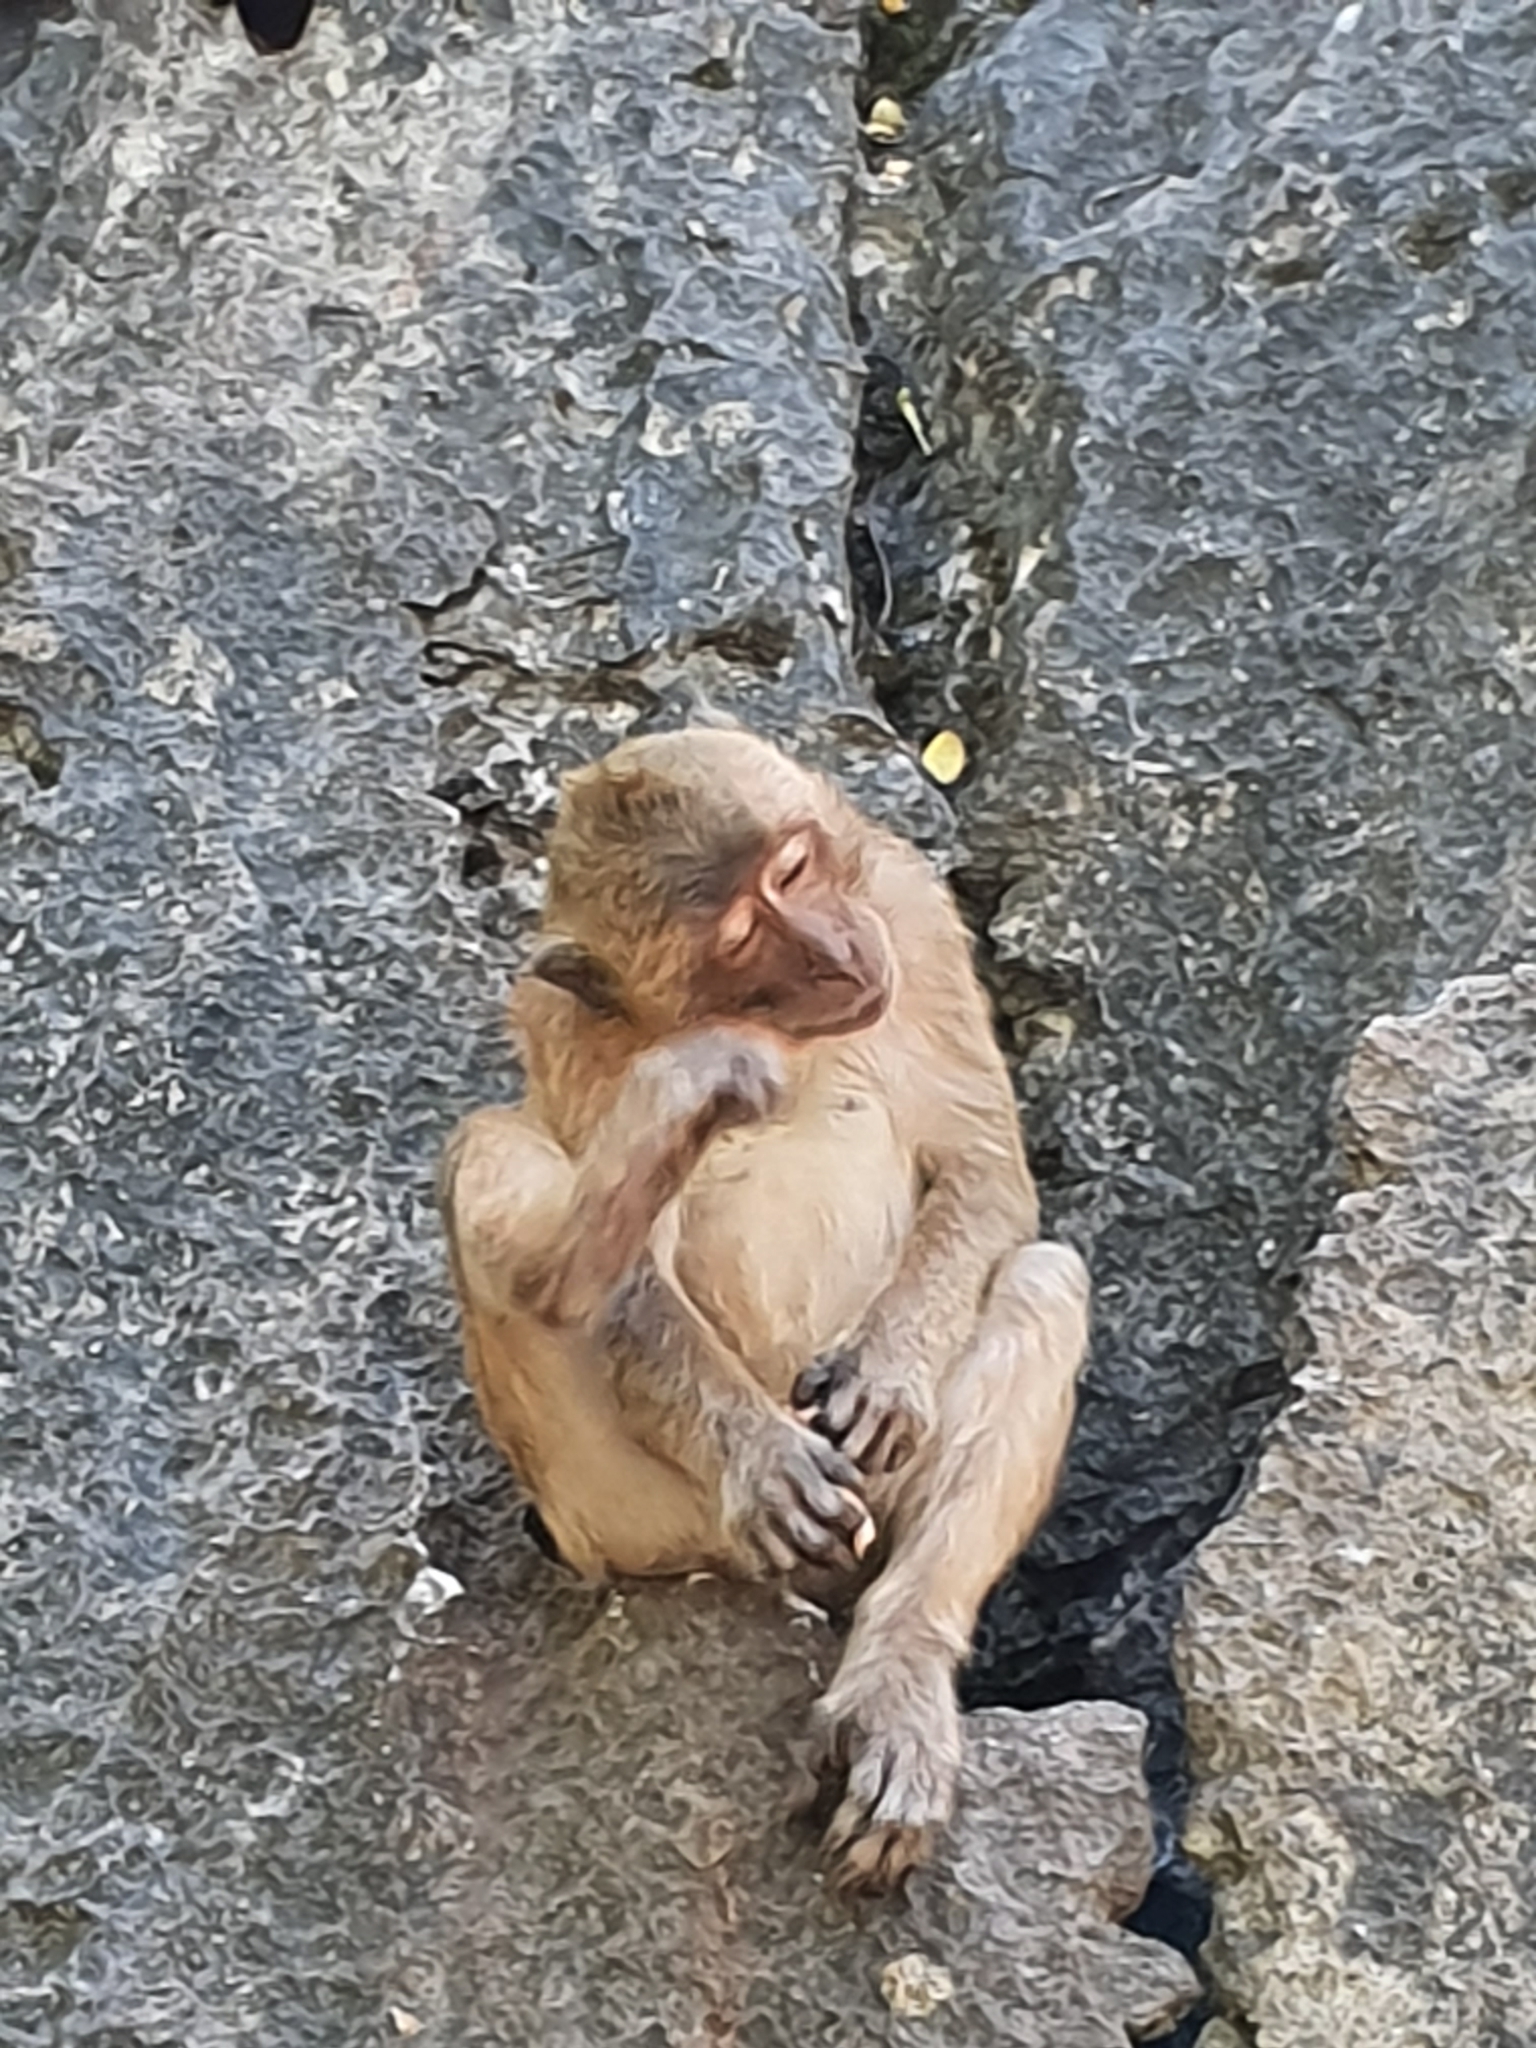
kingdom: Animalia
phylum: Chordata
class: Mammalia
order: Primates
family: Cercopithecidae
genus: Macaca
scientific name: Macaca fascicularis
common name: Crab-eating macaque
